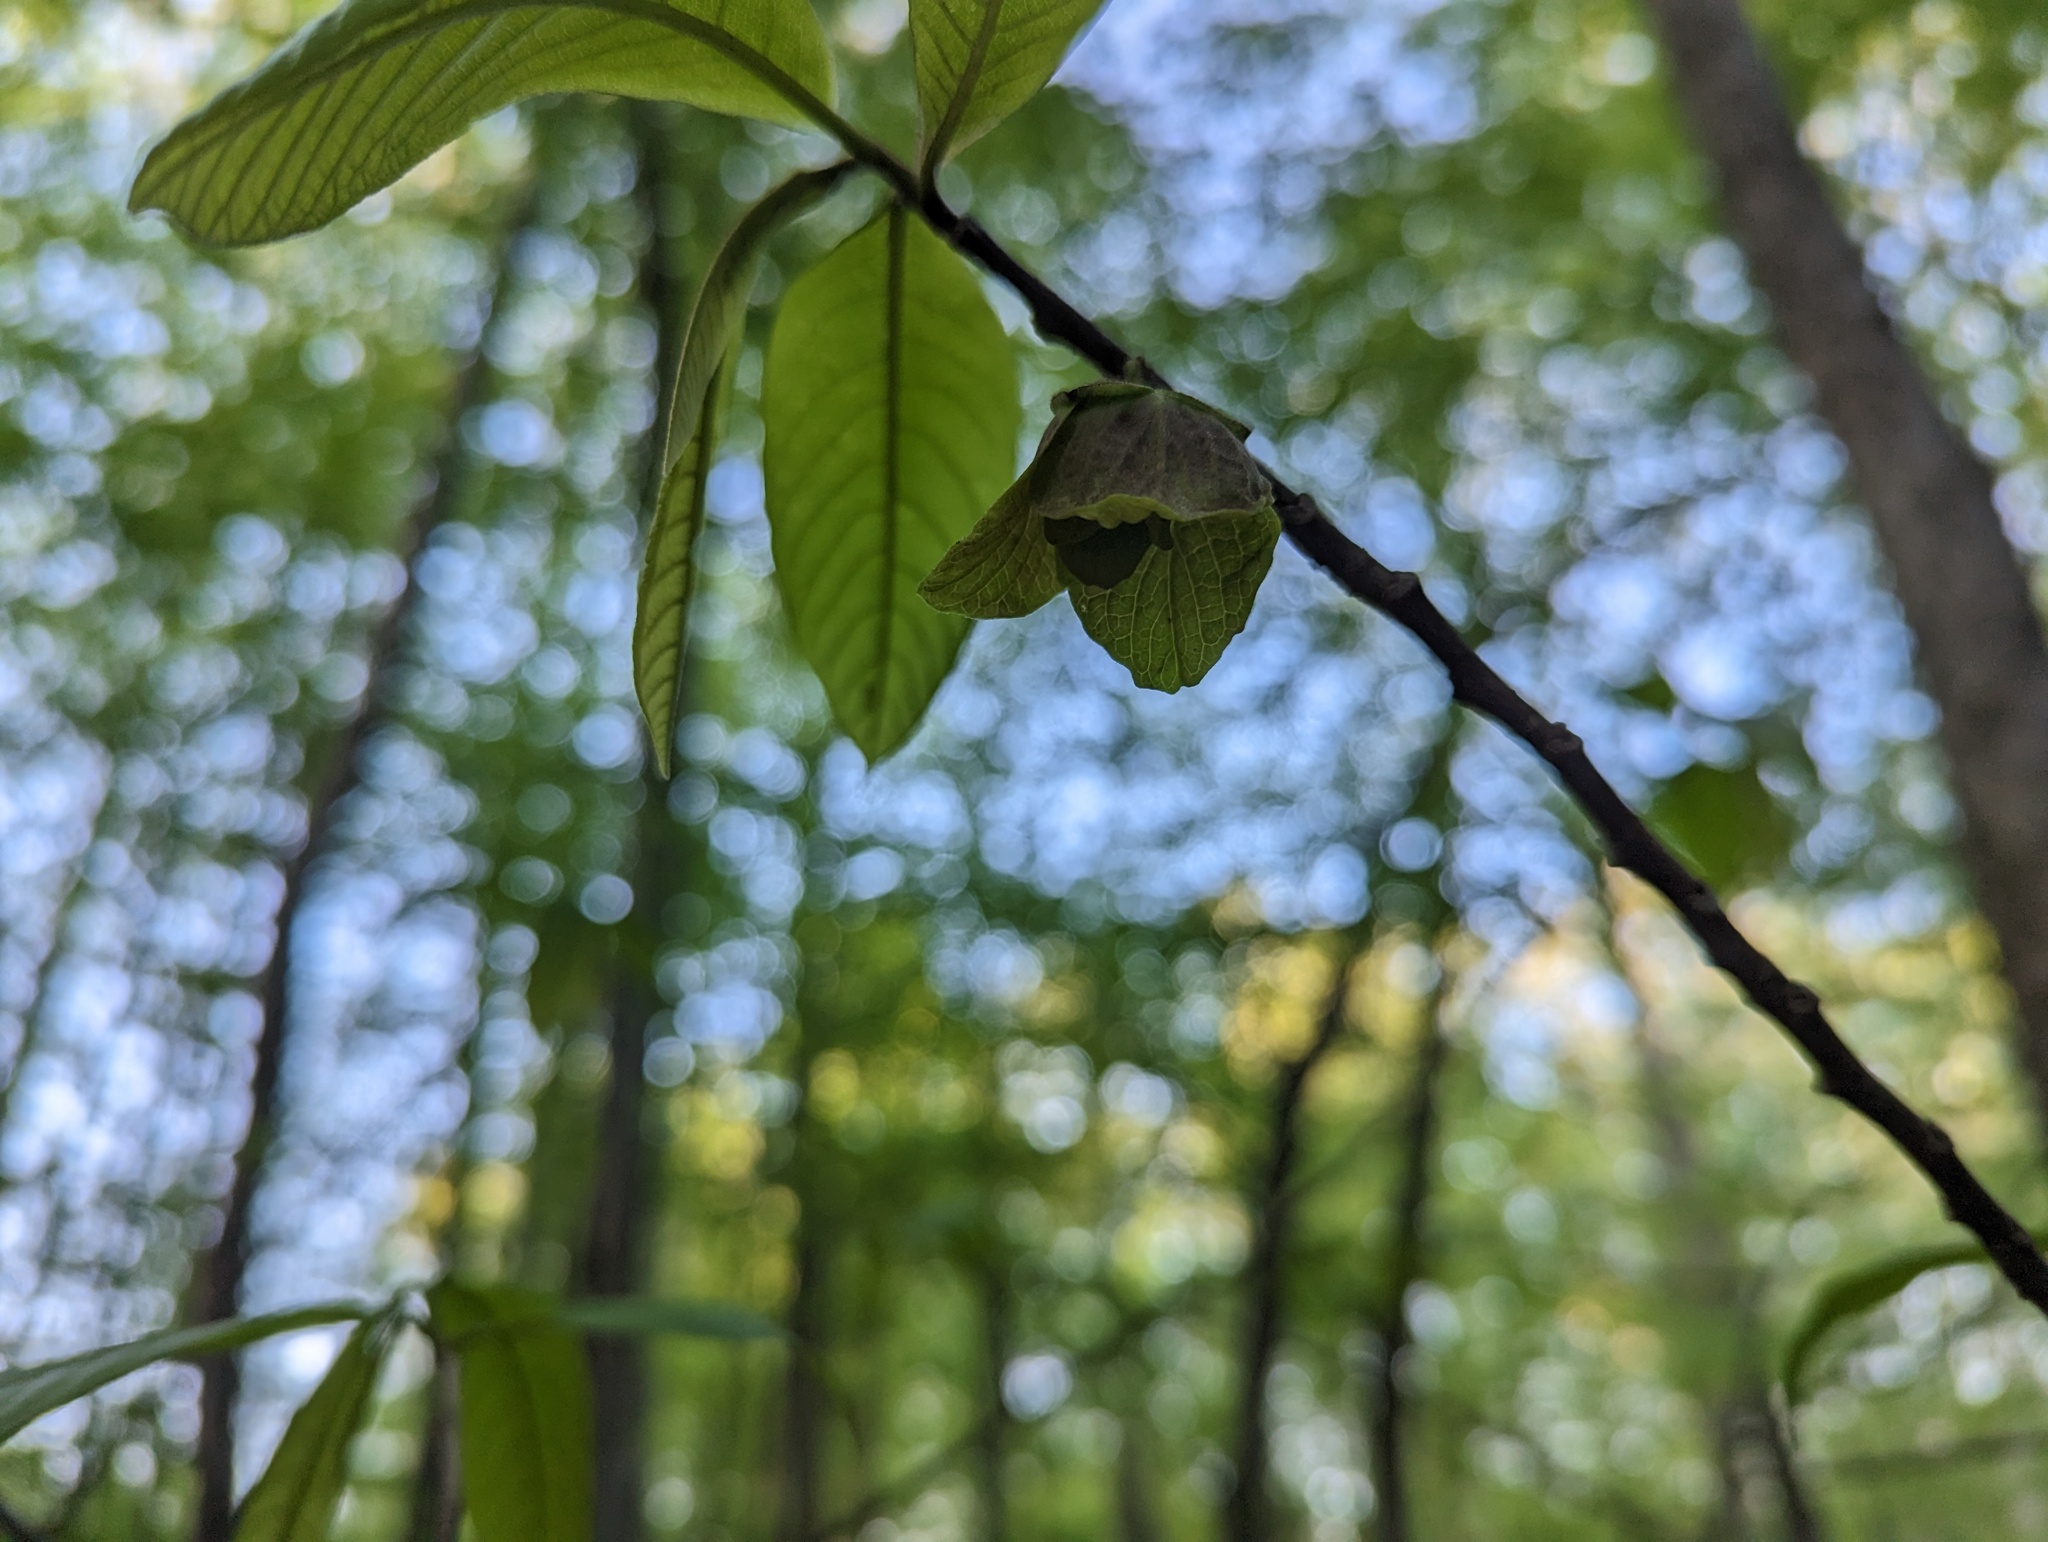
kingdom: Plantae
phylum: Tracheophyta
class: Magnoliopsida
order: Magnoliales
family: Annonaceae
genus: Asimina
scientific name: Asimina triloba
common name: Dog-banana
